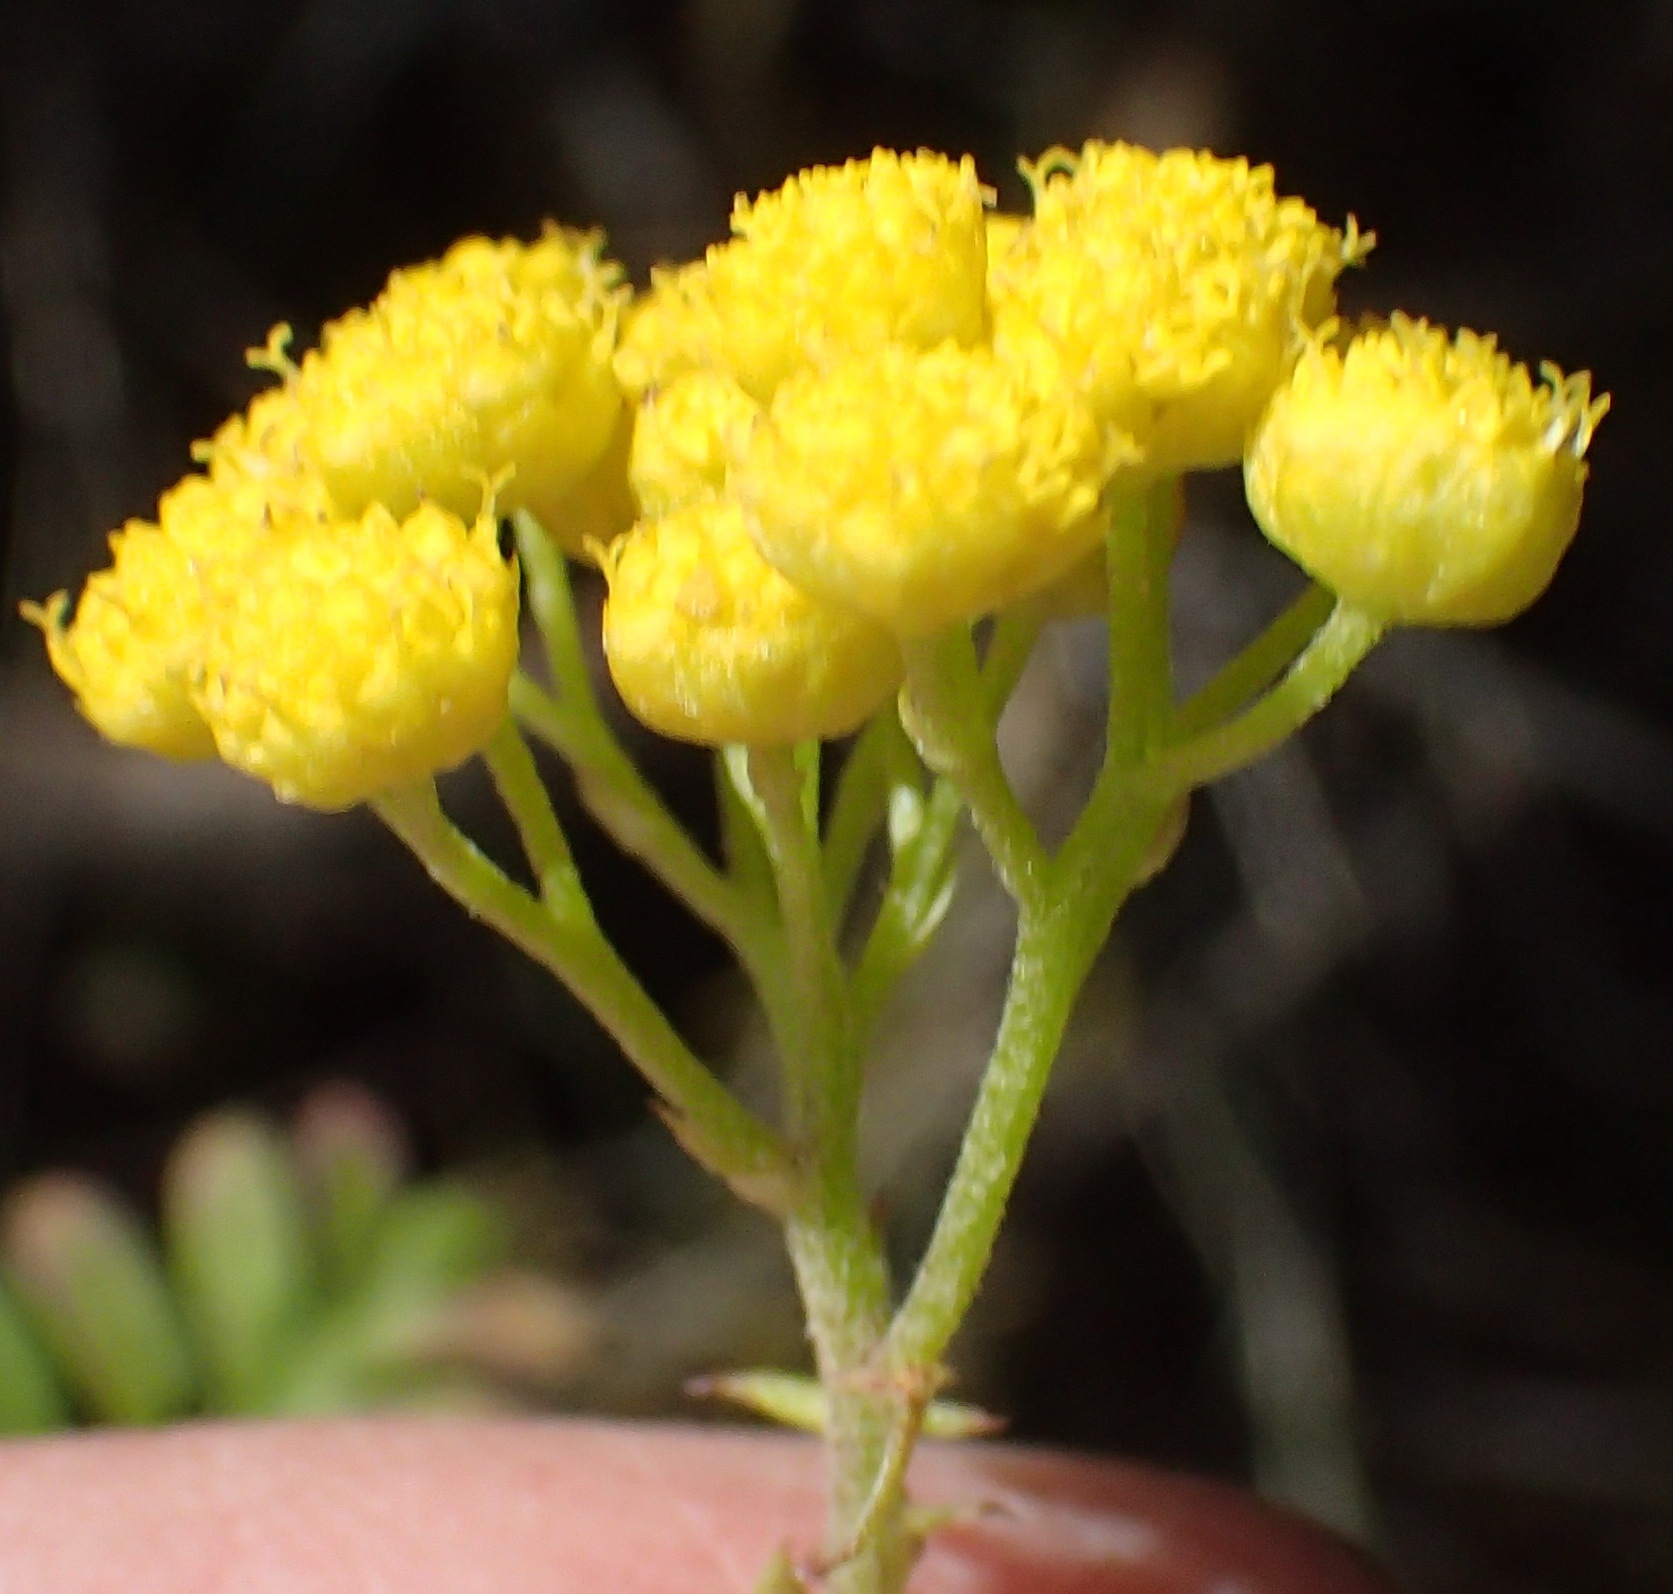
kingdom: Plantae
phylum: Tracheophyta
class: Magnoliopsida
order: Asterales
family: Asteraceae
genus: Hippia
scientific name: Hippia frutescens
